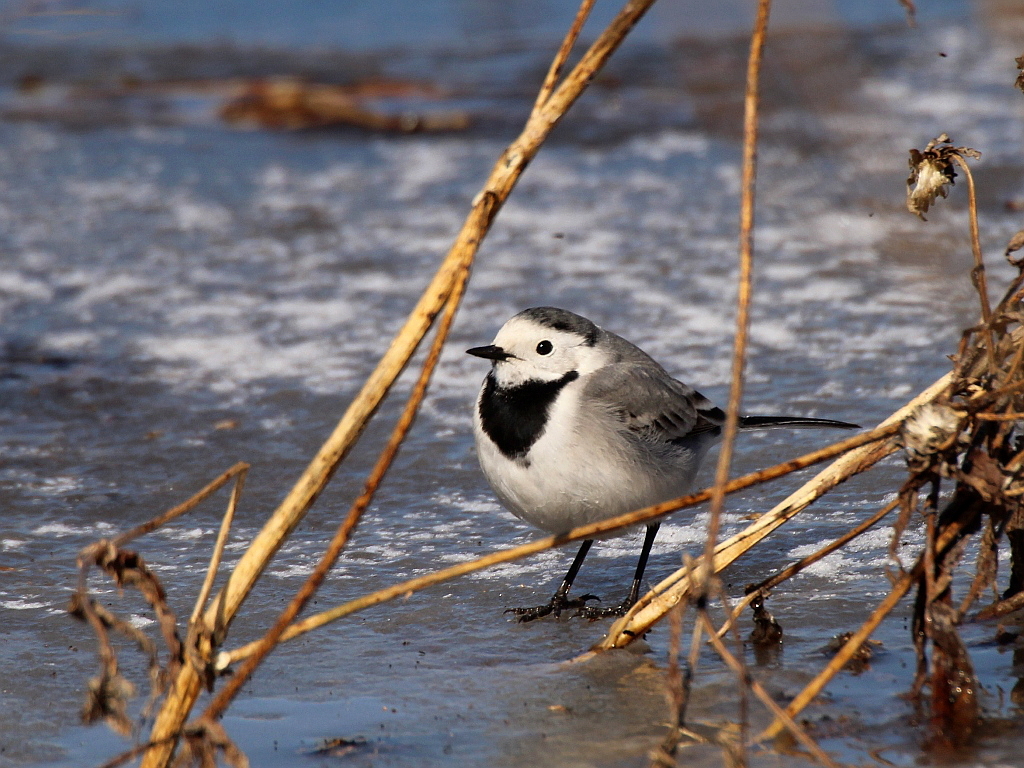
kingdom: Animalia
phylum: Chordata
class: Aves
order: Passeriformes
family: Motacillidae
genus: Motacilla
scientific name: Motacilla alba
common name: White wagtail
